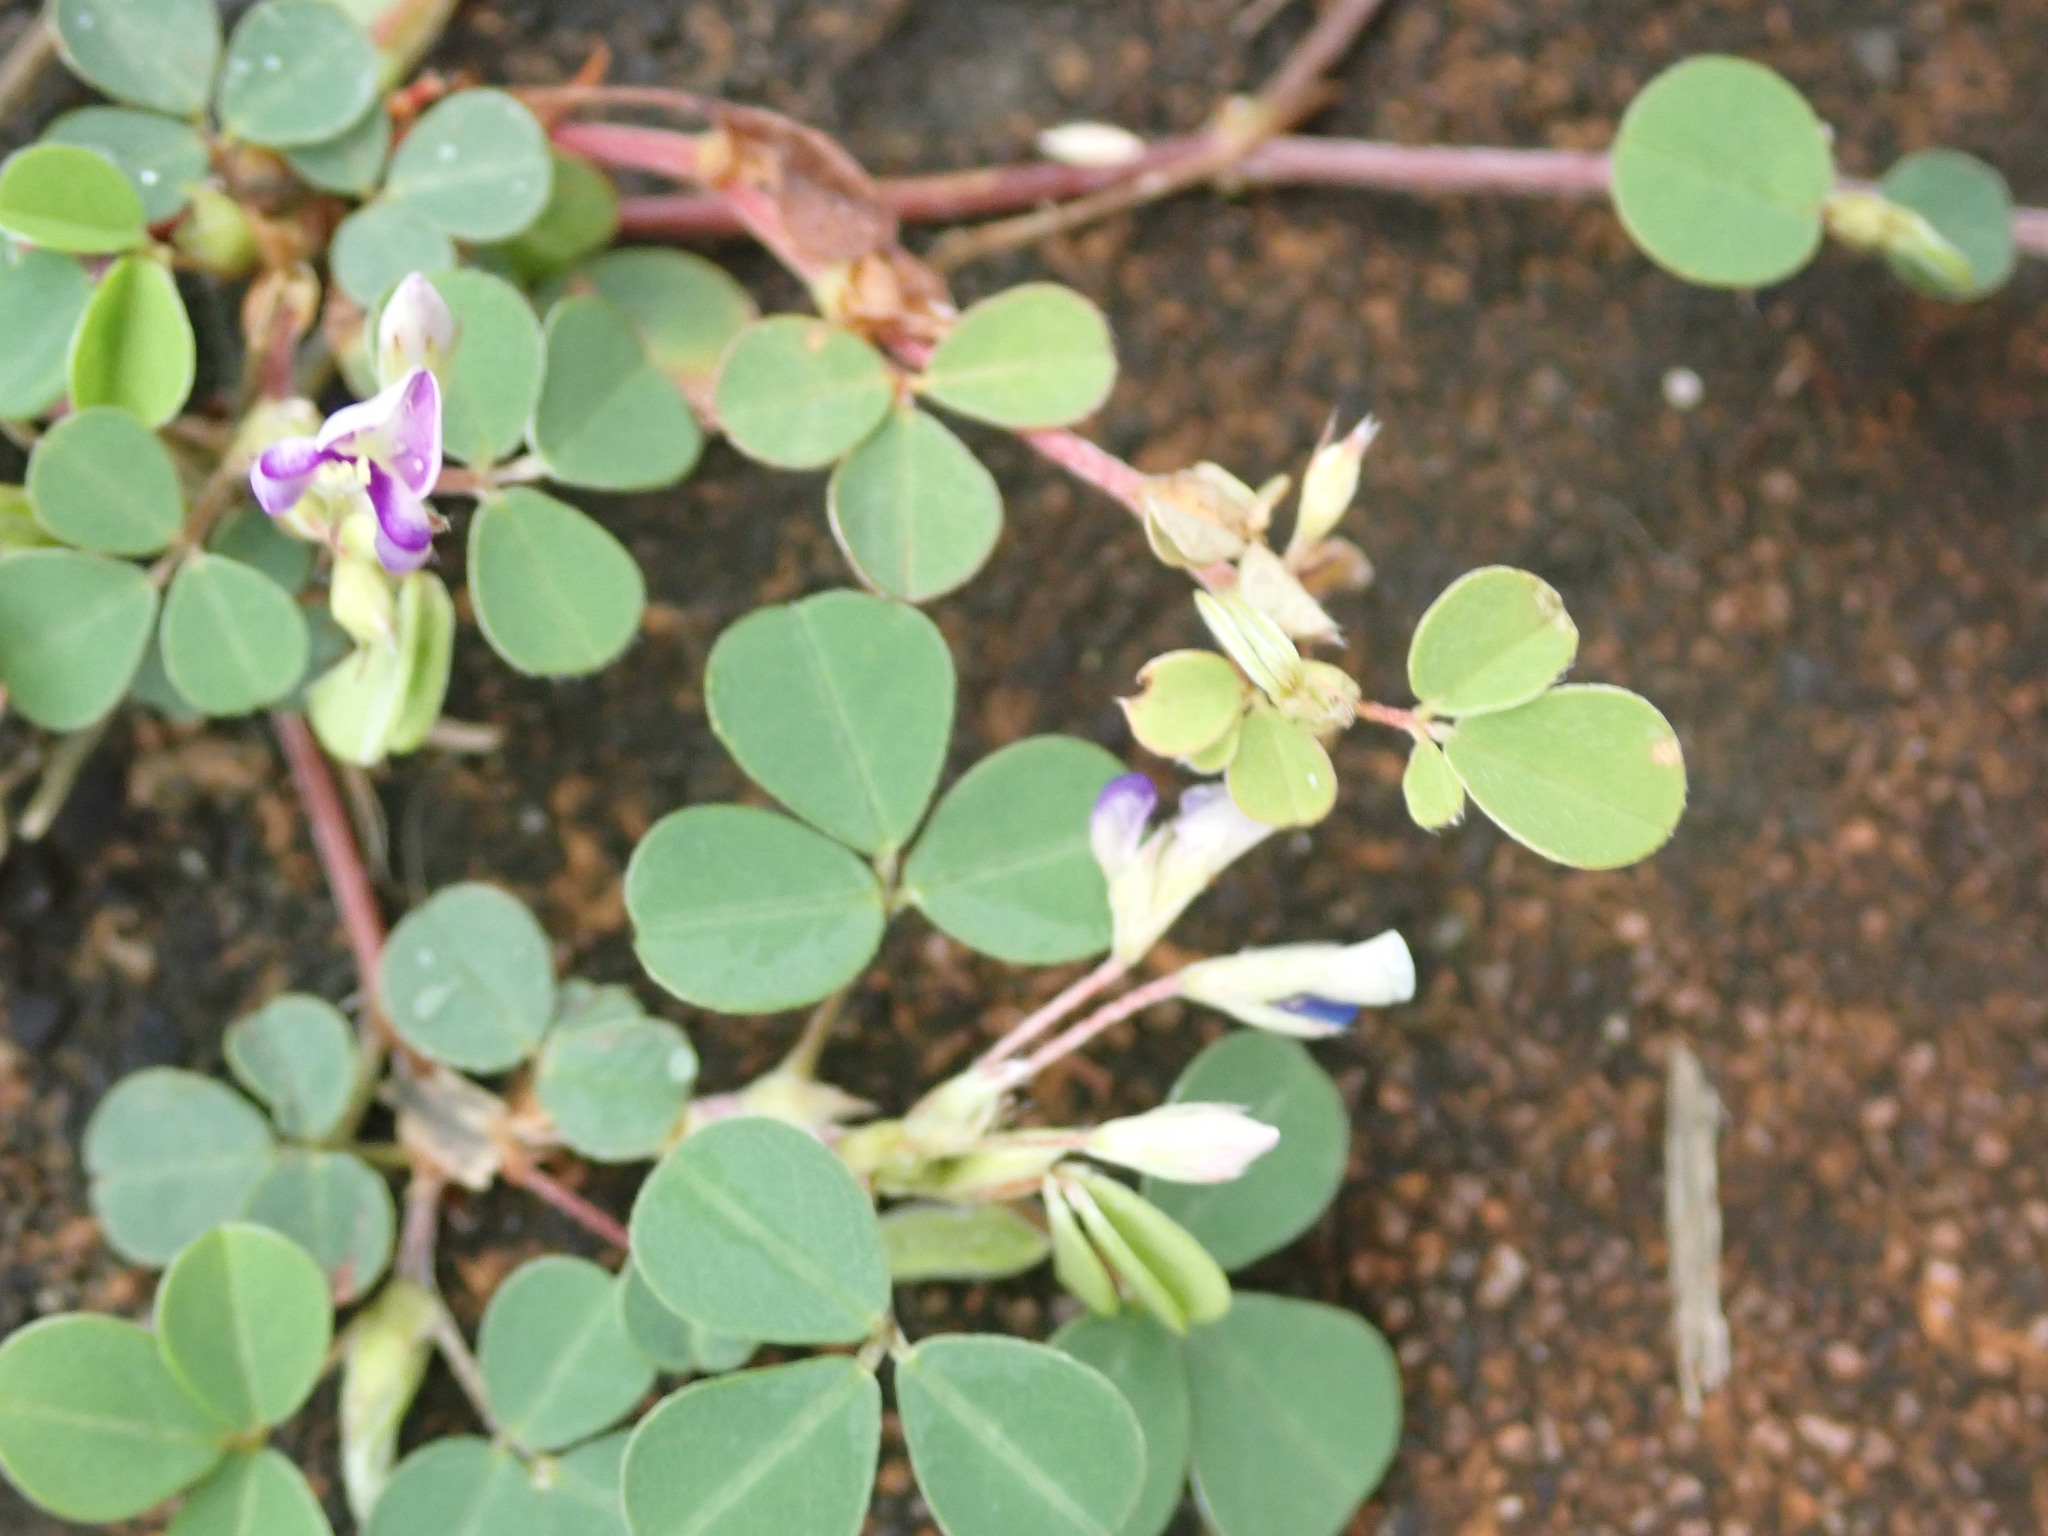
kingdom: Plantae
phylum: Tracheophyta
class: Magnoliopsida
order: Fabales
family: Fabaceae
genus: Grona
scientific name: Grona triflora
